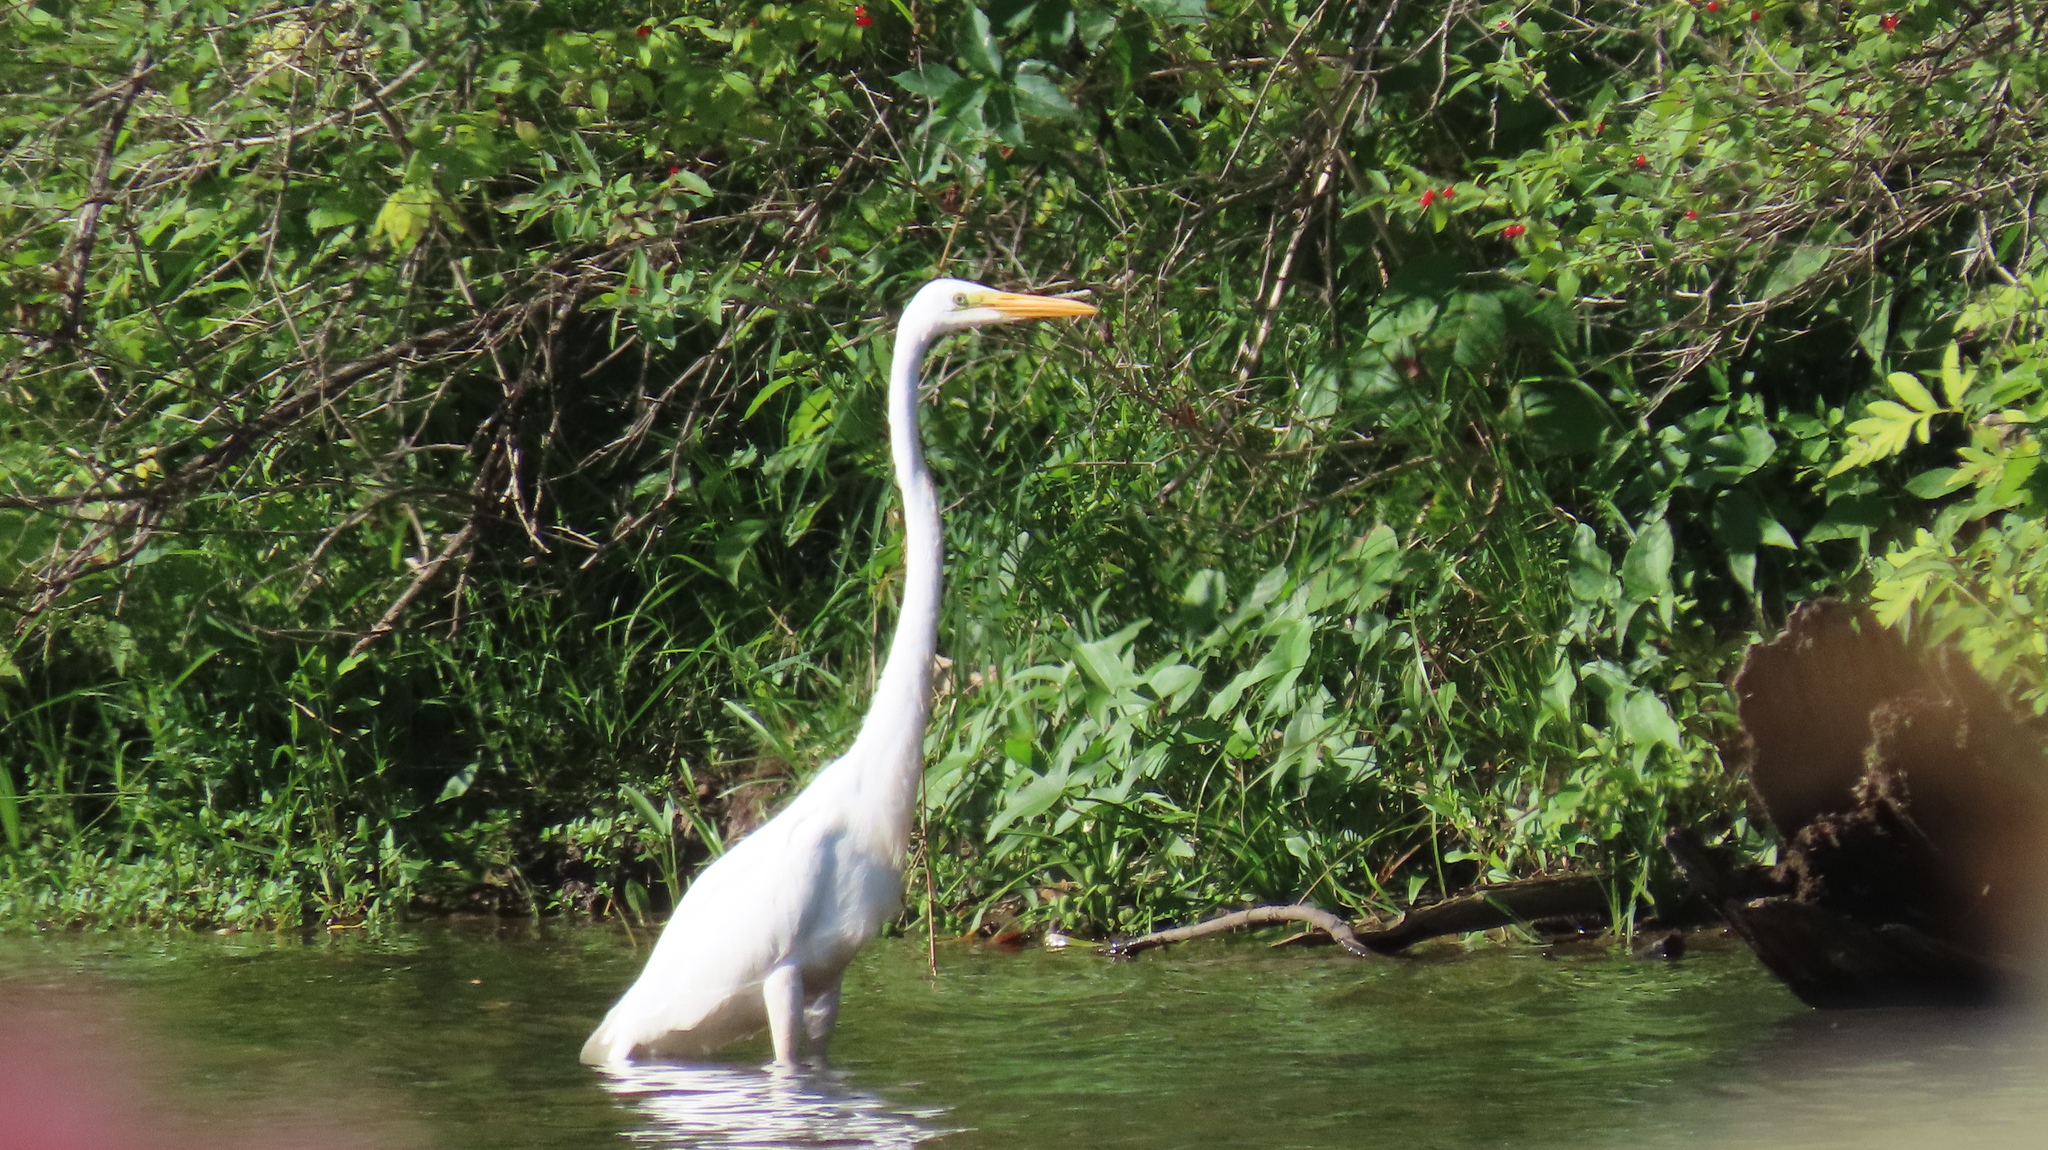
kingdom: Animalia
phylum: Chordata
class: Aves
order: Pelecaniformes
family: Ardeidae
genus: Ardea
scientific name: Ardea alba
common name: Great egret
